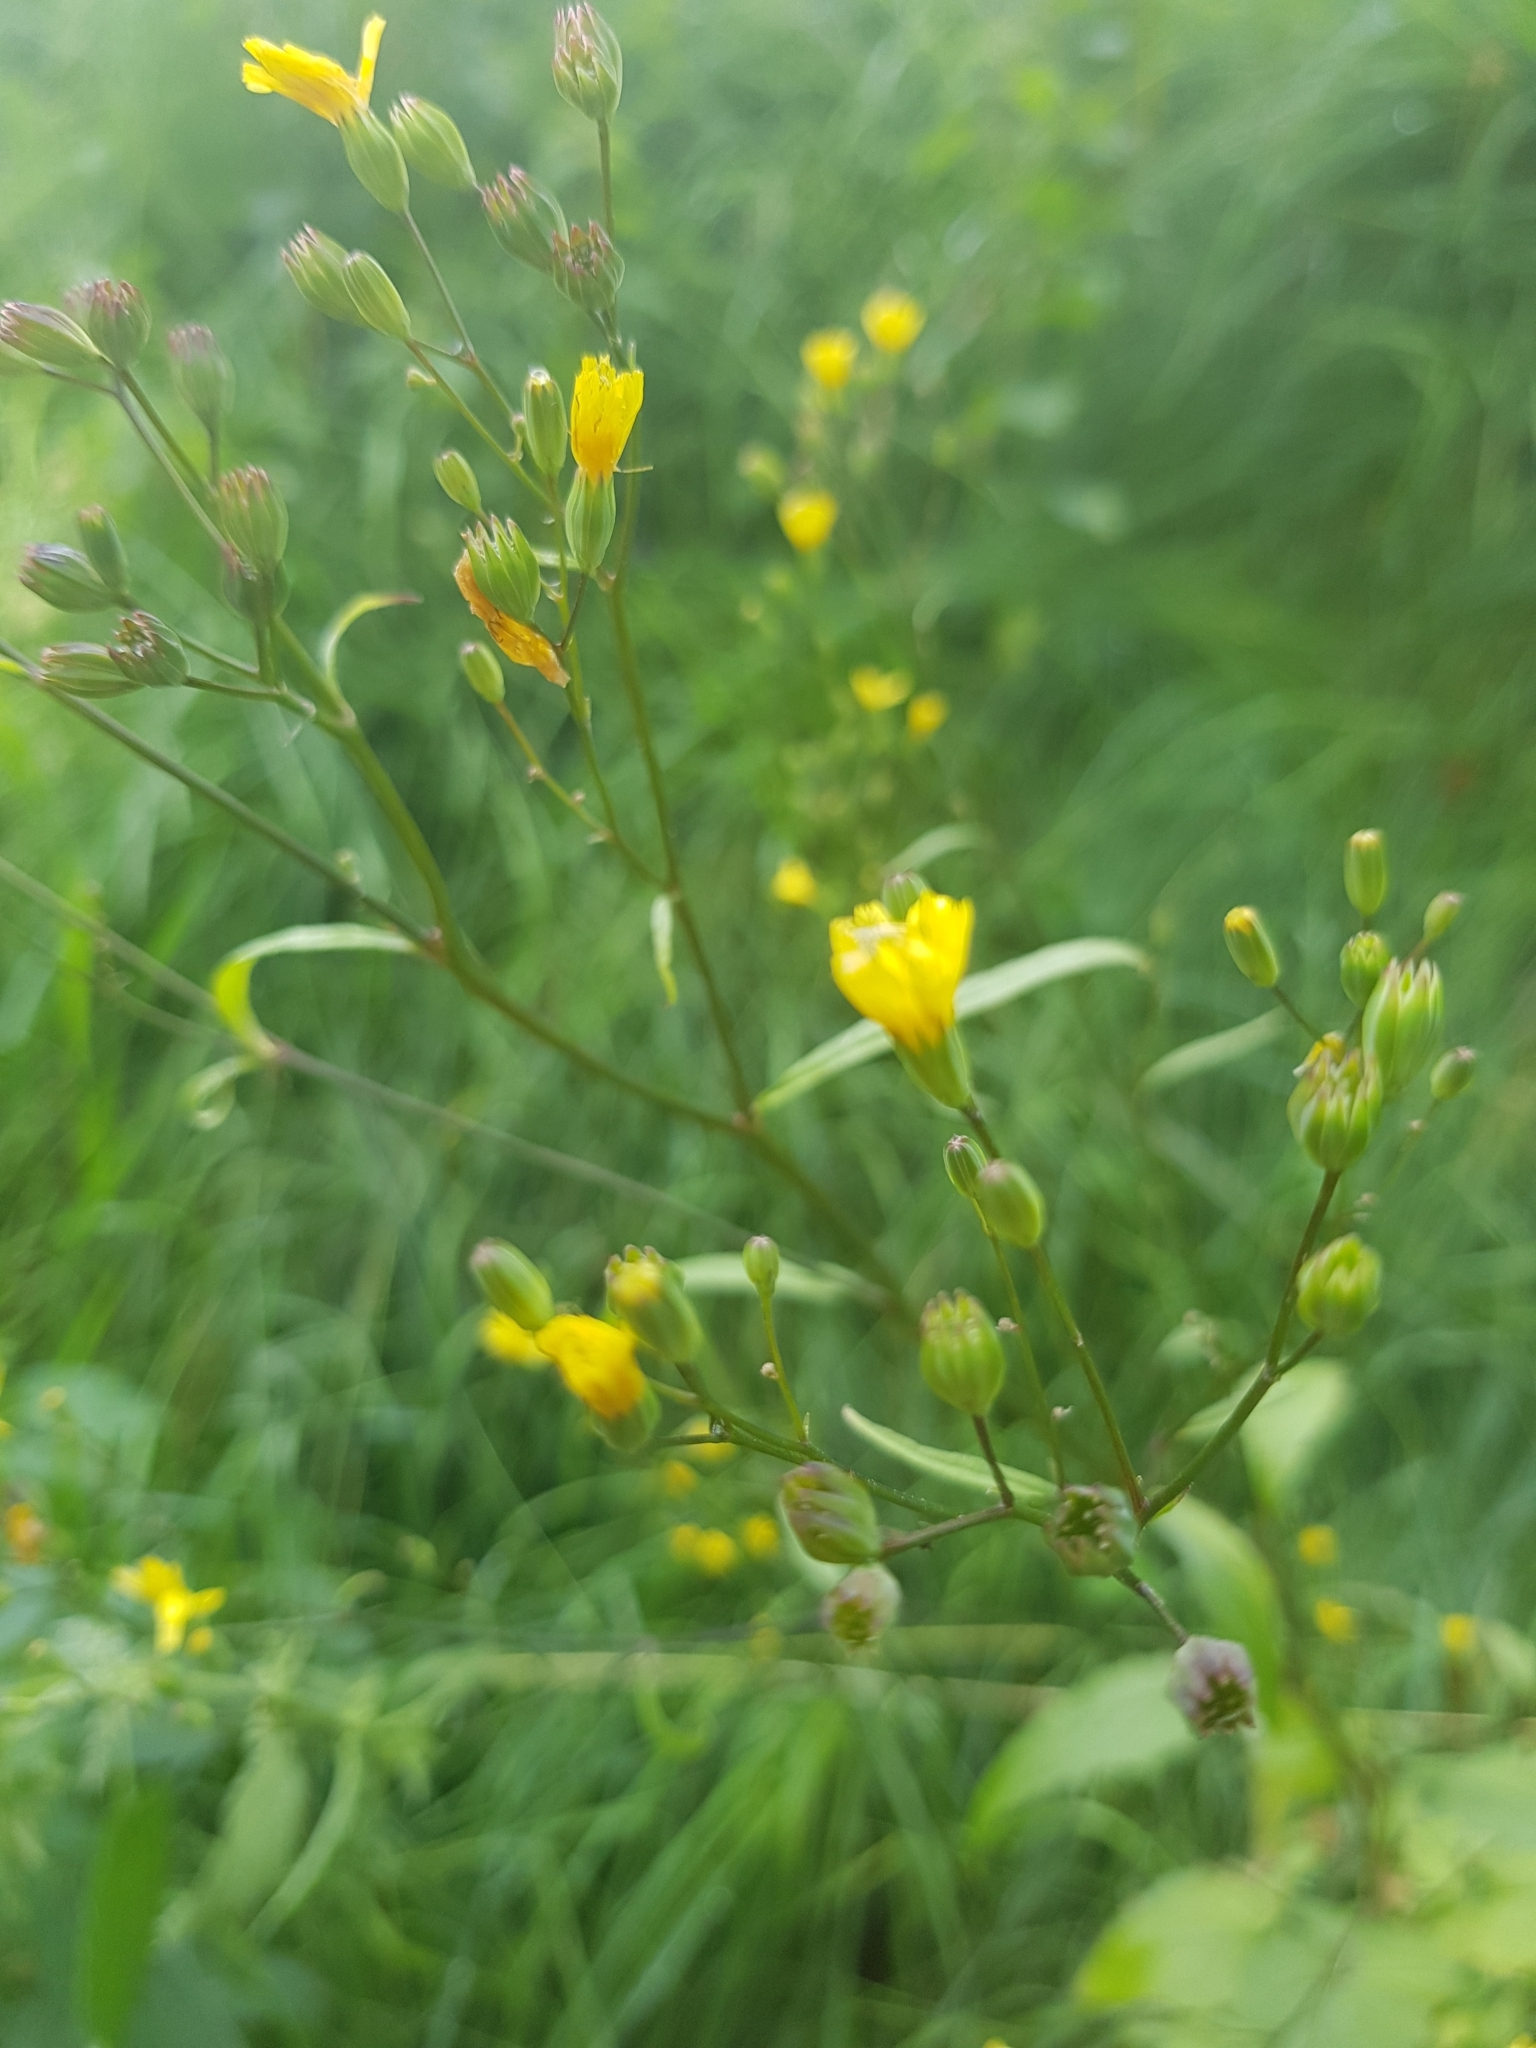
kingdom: Plantae
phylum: Tracheophyta
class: Magnoliopsida
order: Asterales
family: Asteraceae
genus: Lapsana
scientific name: Lapsana communis
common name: Nipplewort
